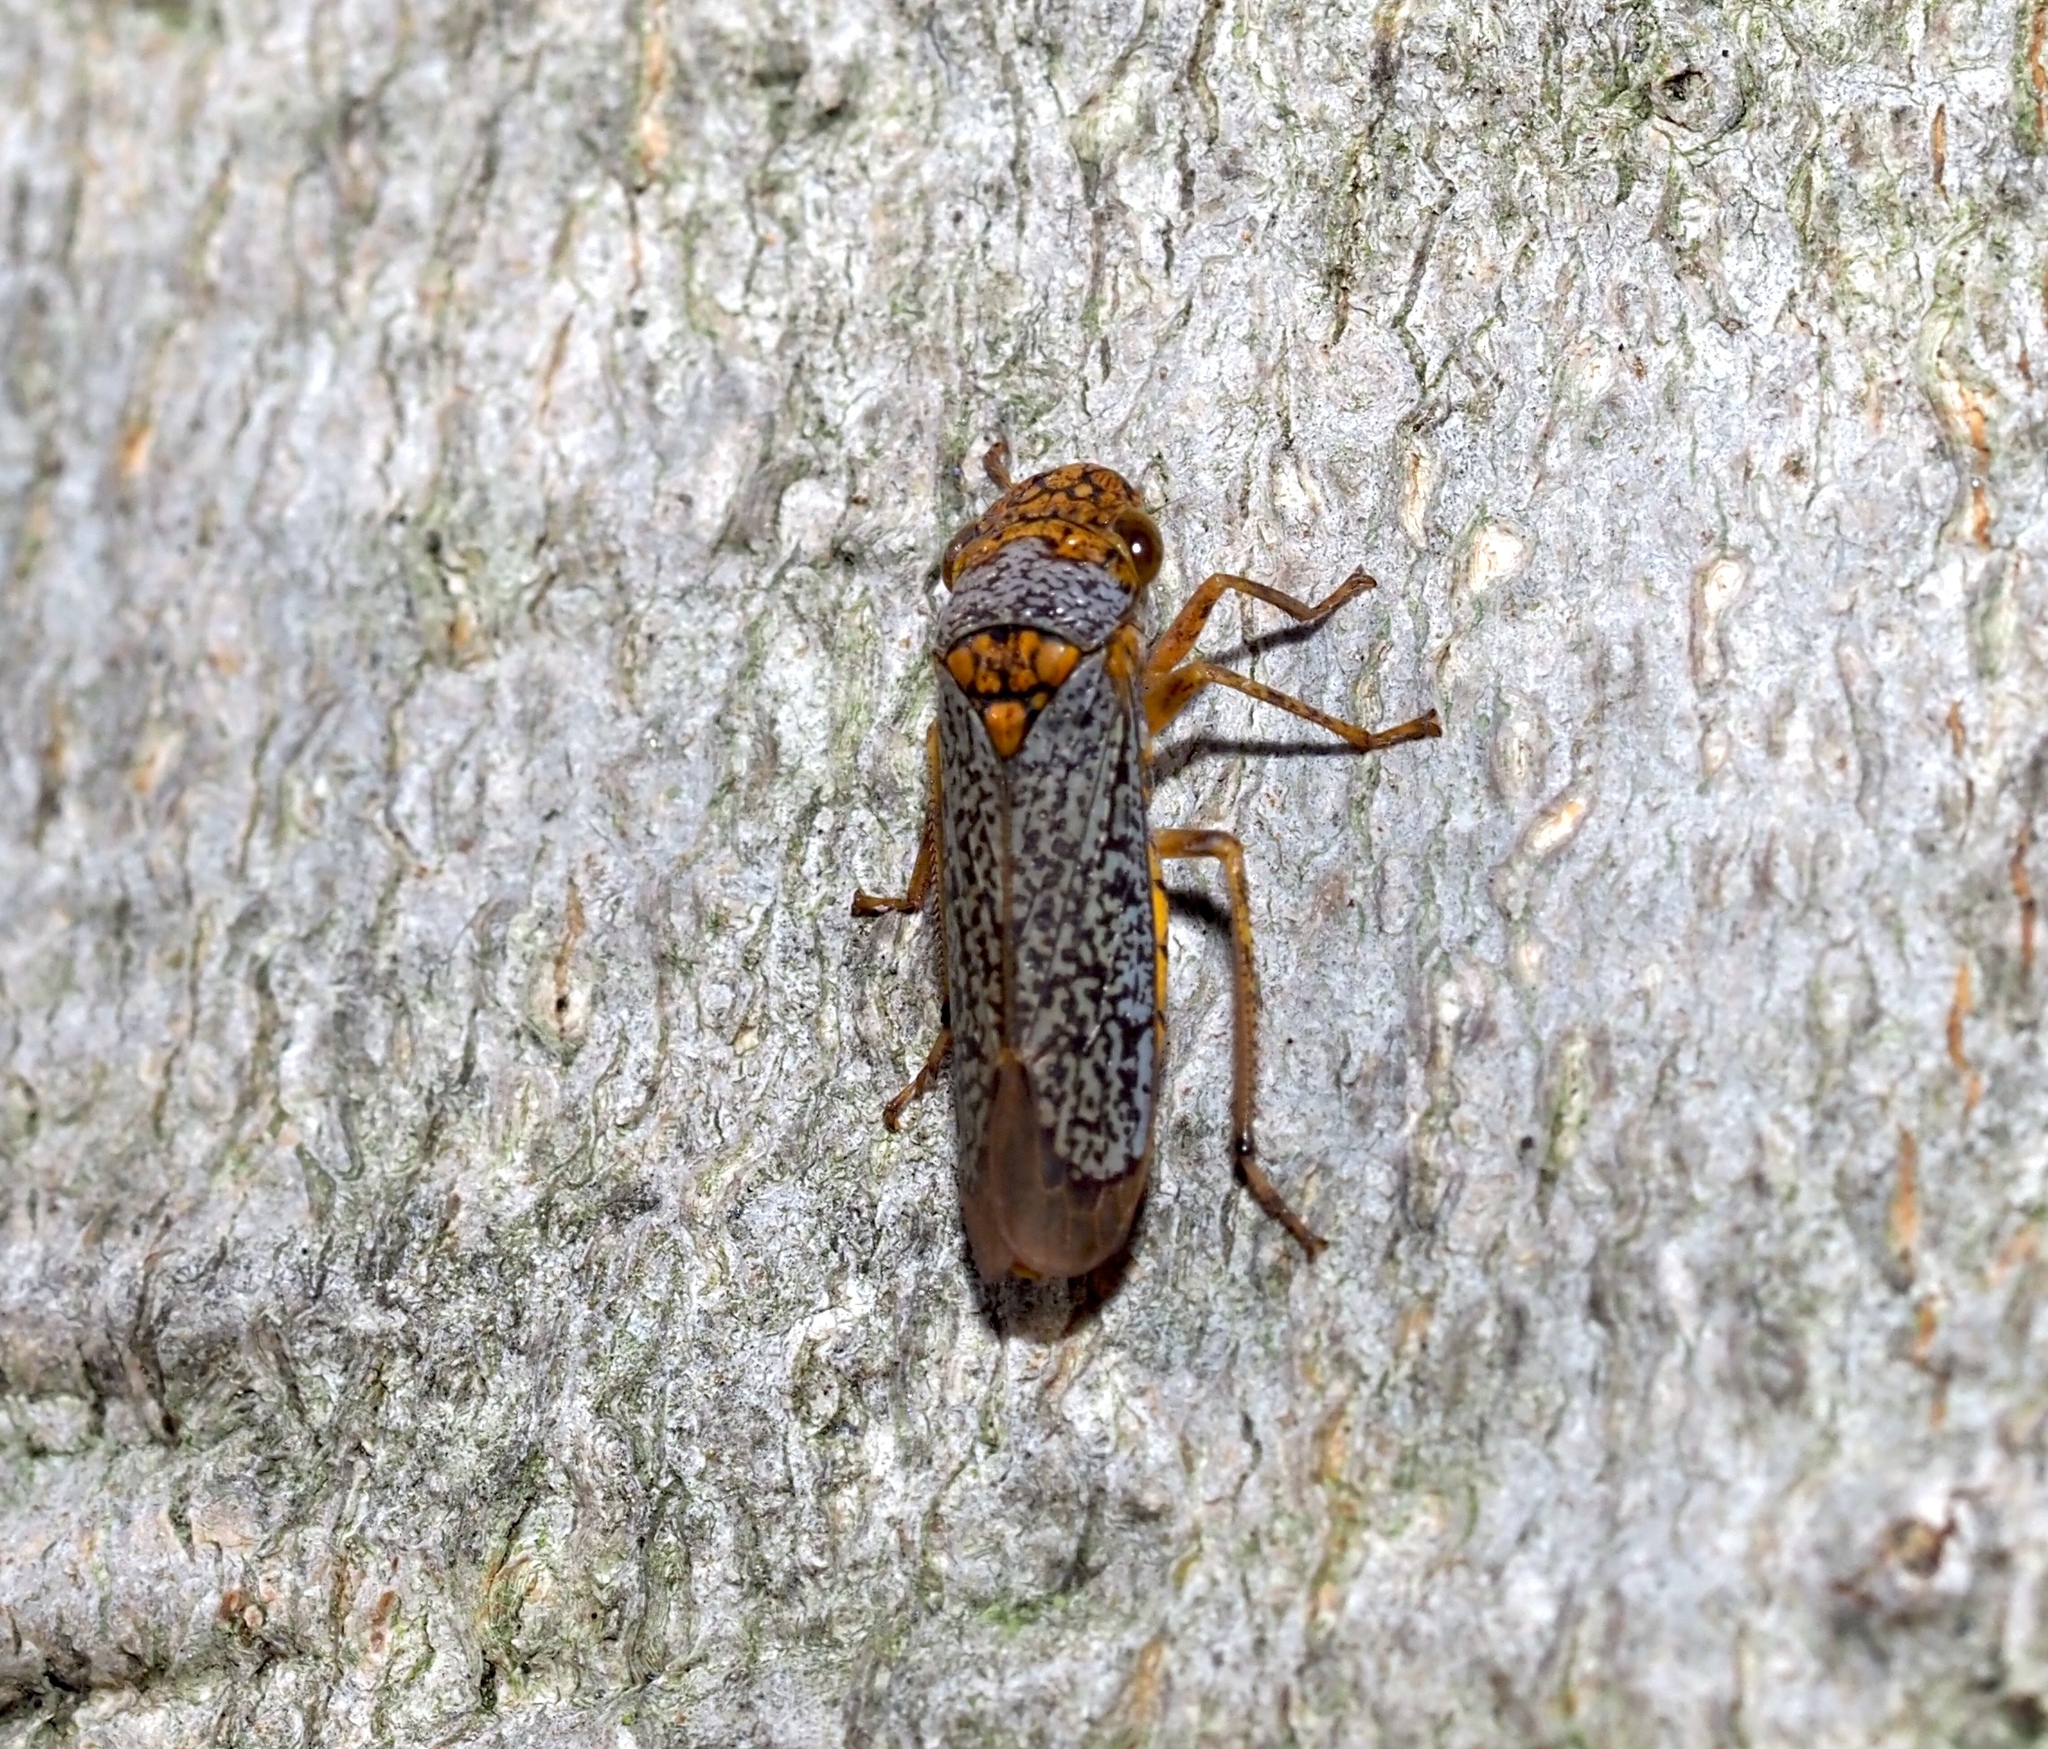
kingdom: Animalia
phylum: Arthropoda
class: Insecta
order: Hemiptera
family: Cicadellidae
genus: Oncometopia
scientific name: Oncometopia orbona
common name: Broad-headed sharpshooter
